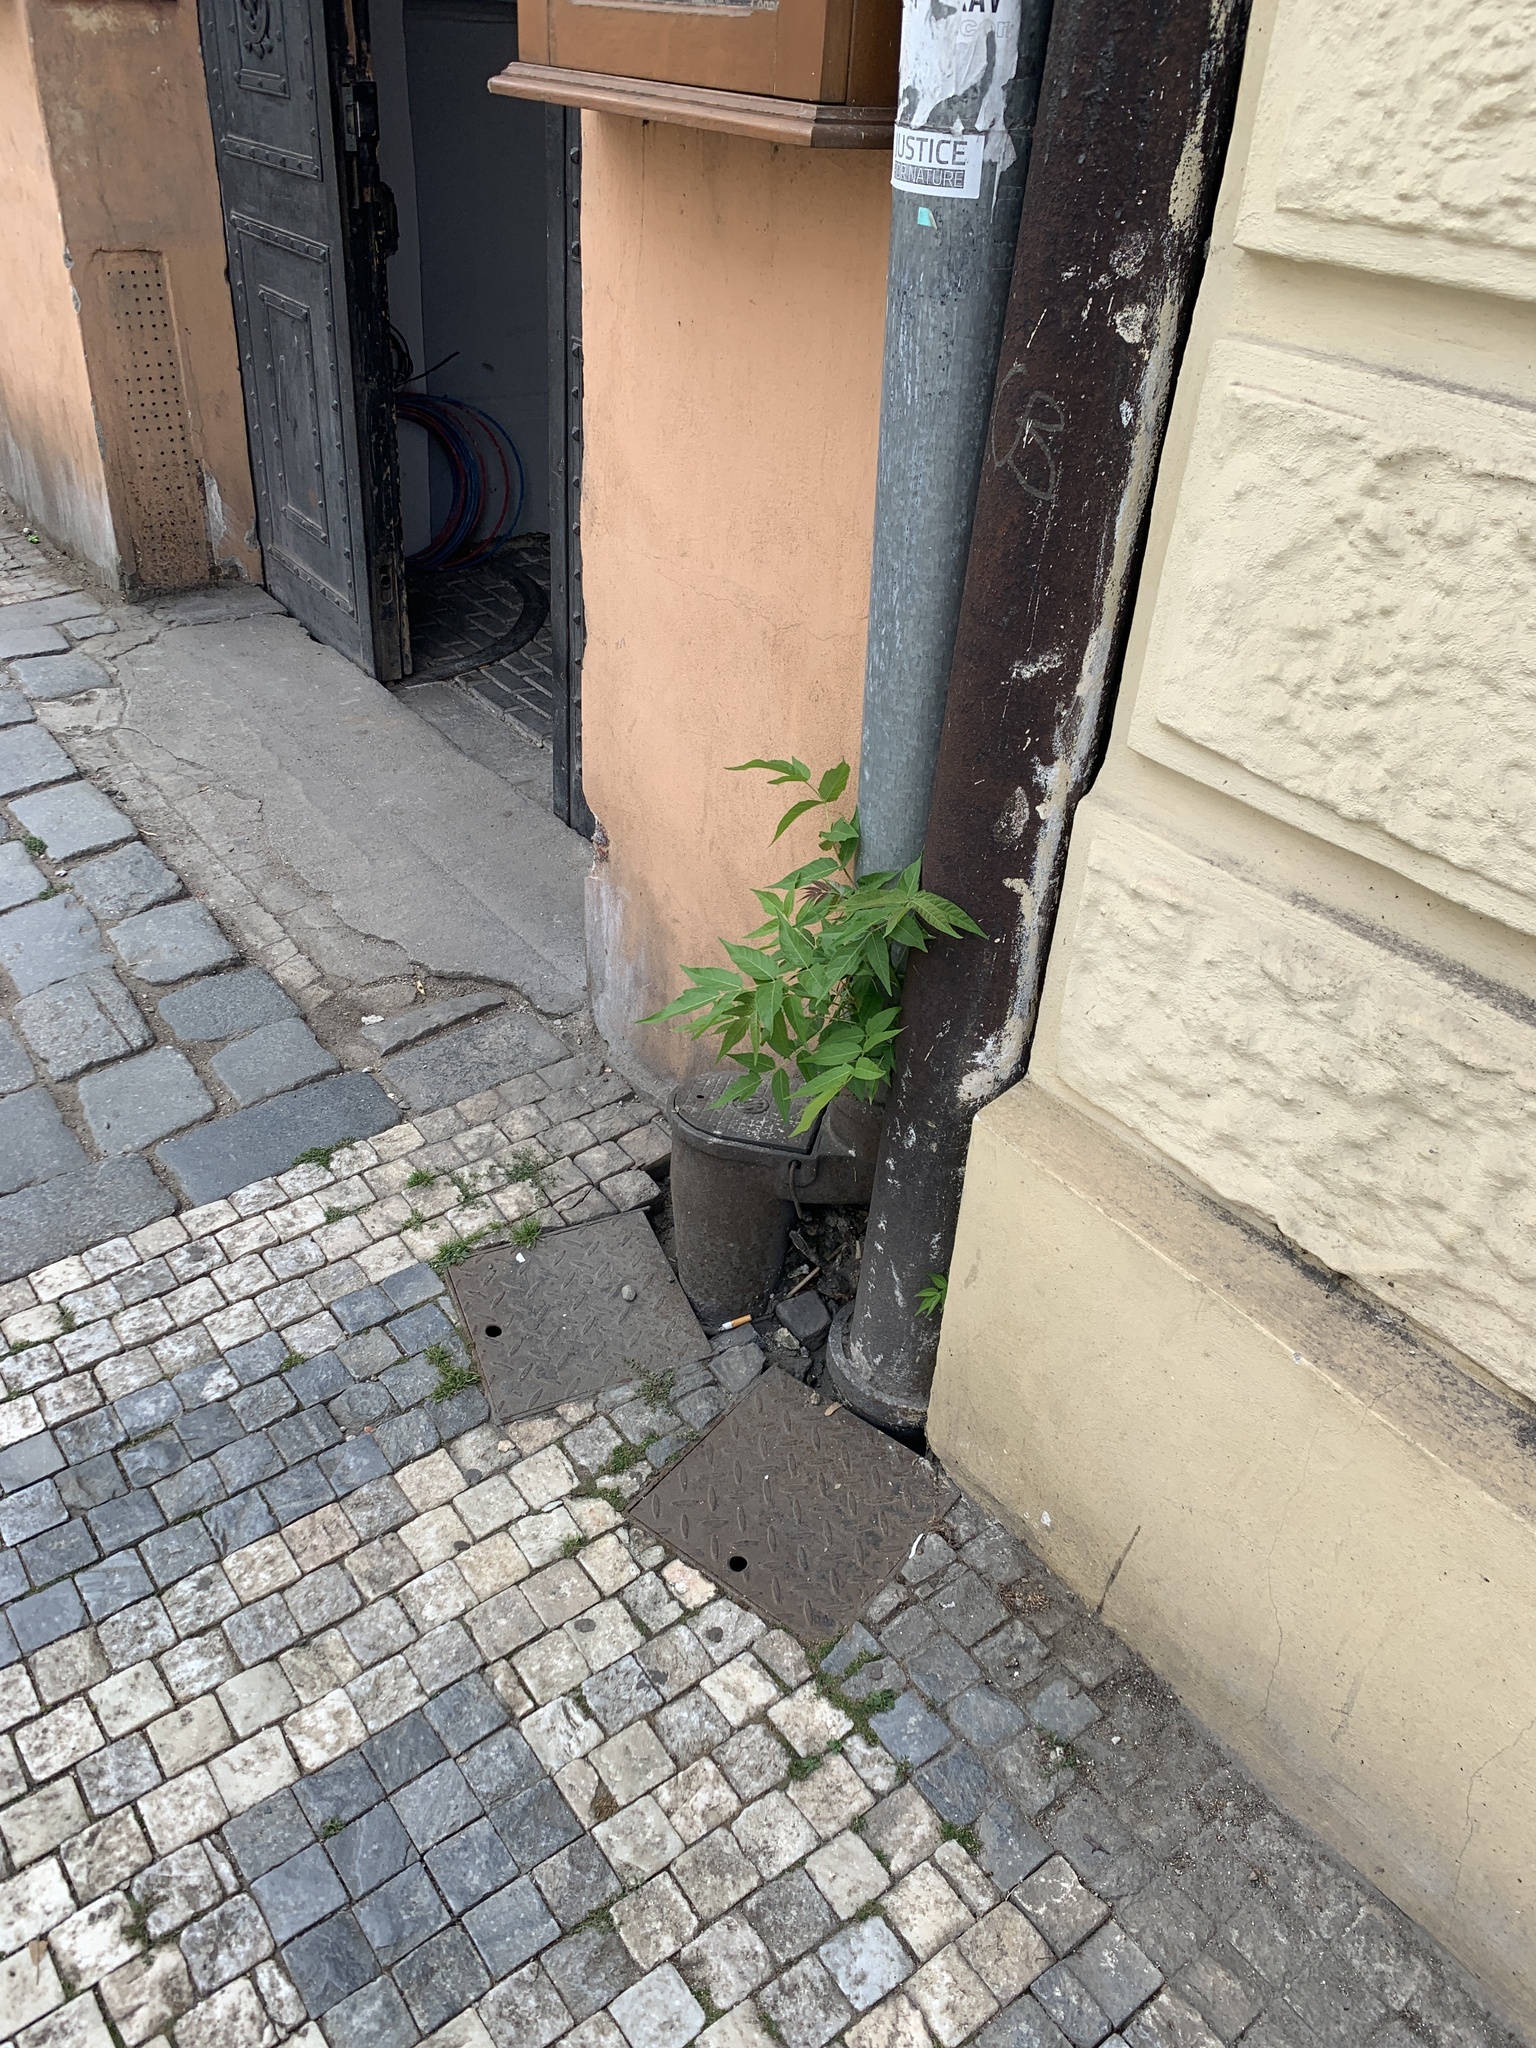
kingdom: Plantae
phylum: Tracheophyta
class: Magnoliopsida
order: Sapindales
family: Simaroubaceae
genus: Ailanthus
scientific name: Ailanthus altissima
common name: Tree-of-heaven
